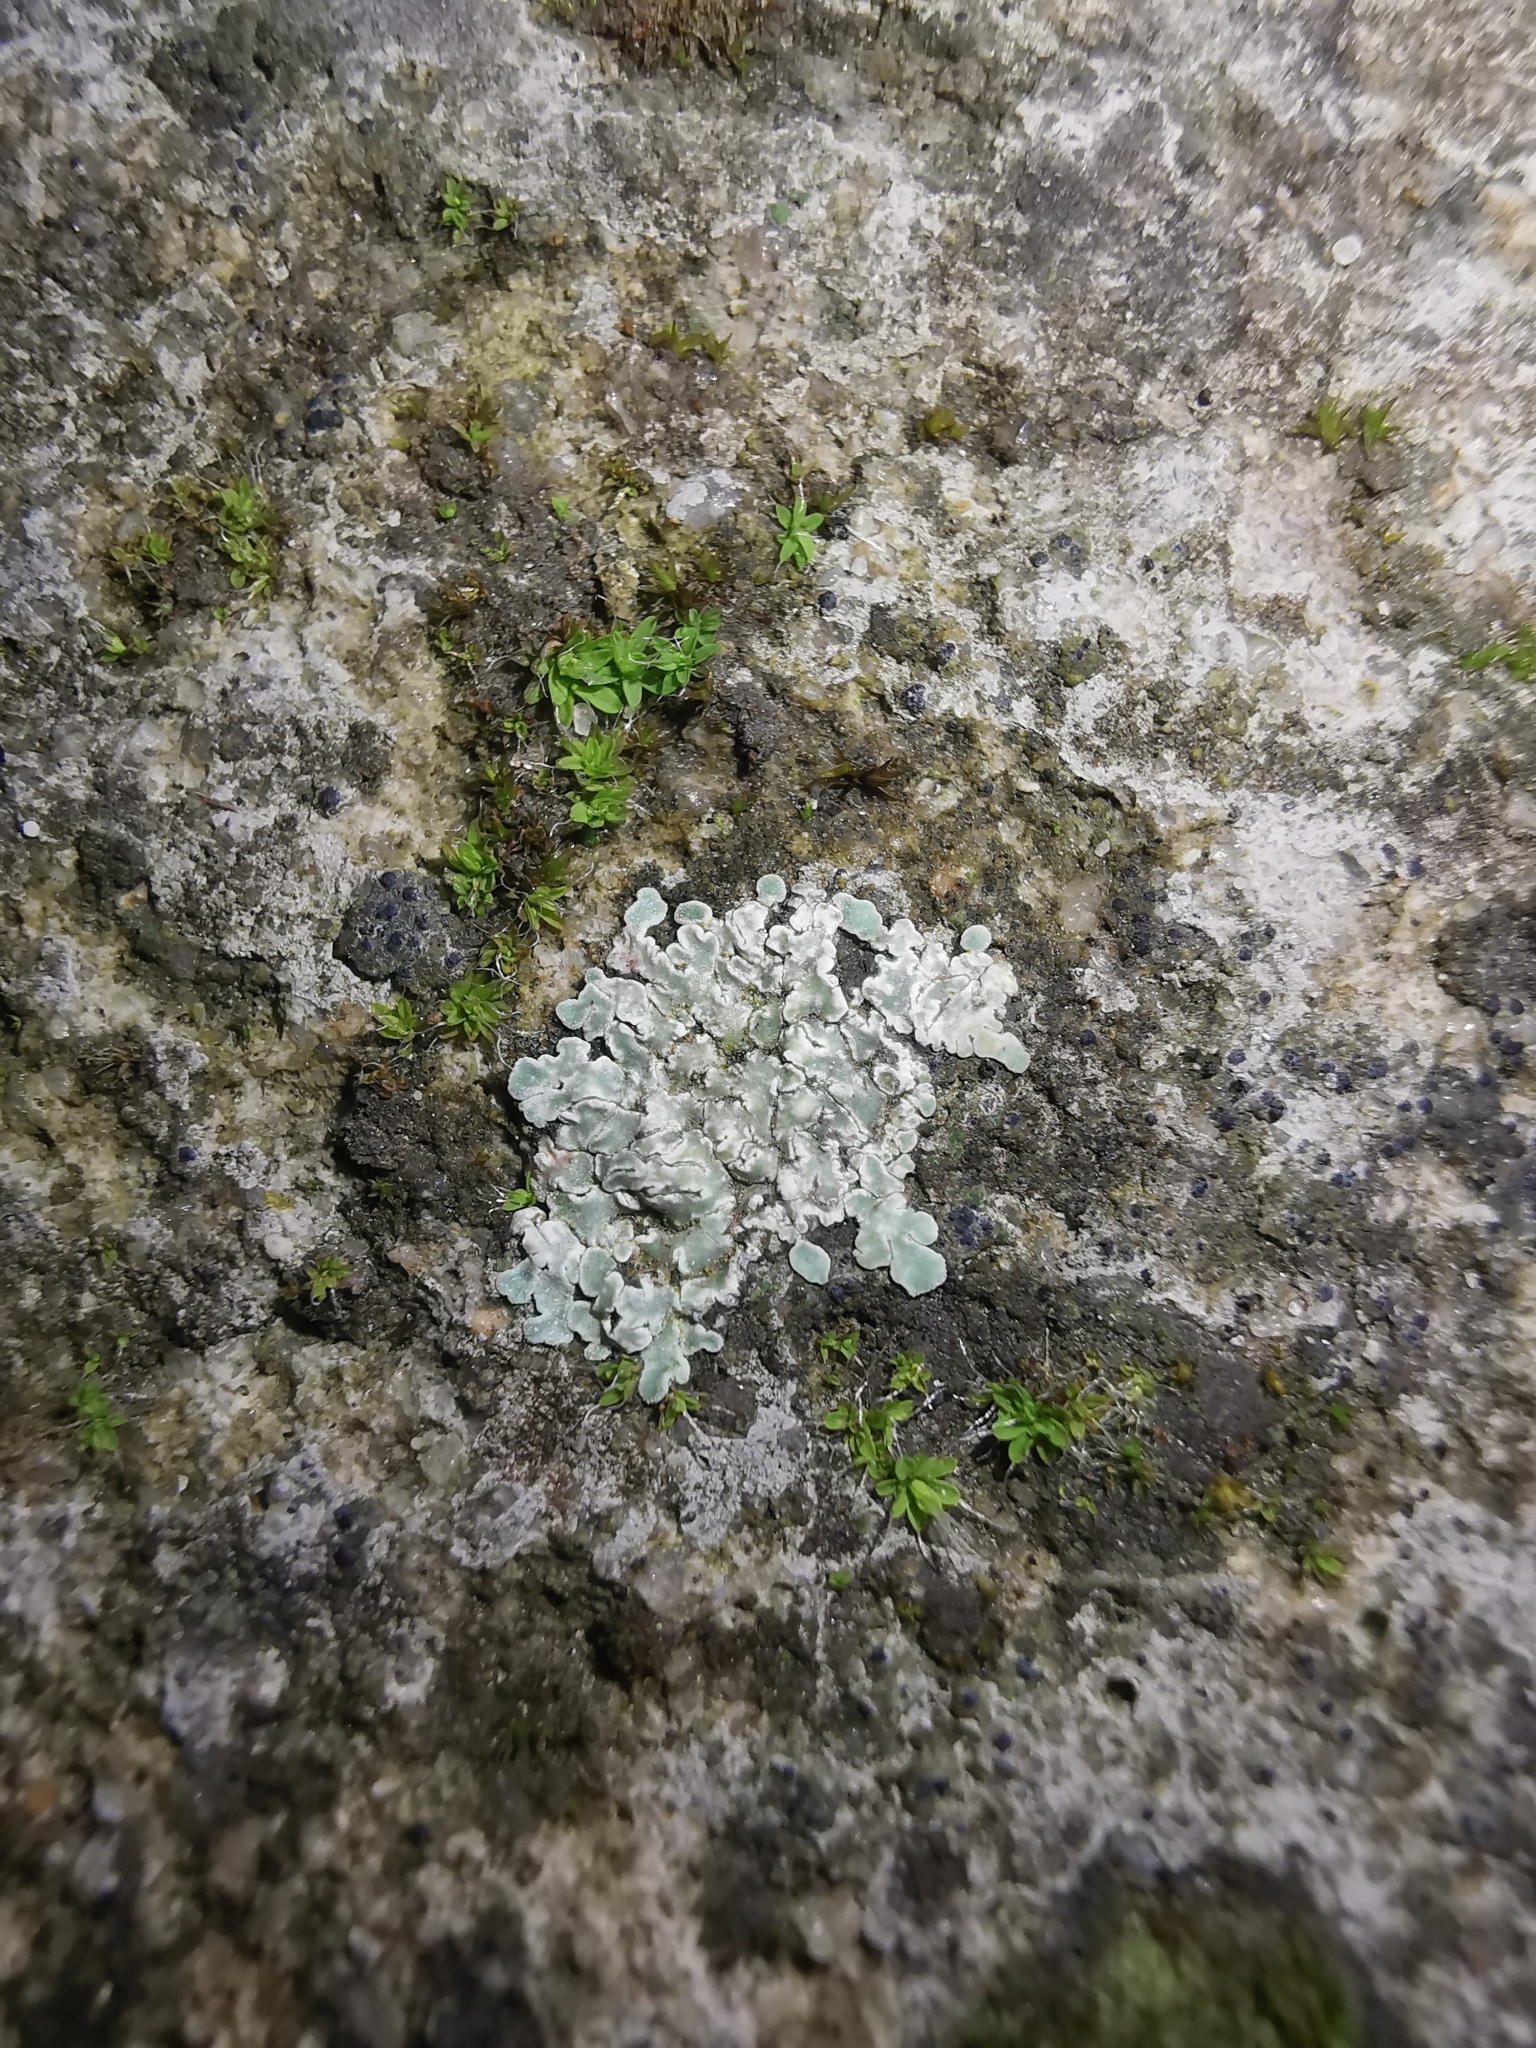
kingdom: Fungi
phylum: Ascomycota
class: Lecanoromycetes
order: Lecanorales
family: Lecanoraceae
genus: Protoparmeliopsis
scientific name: Protoparmeliopsis muralis
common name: Stonewall rim lichen
